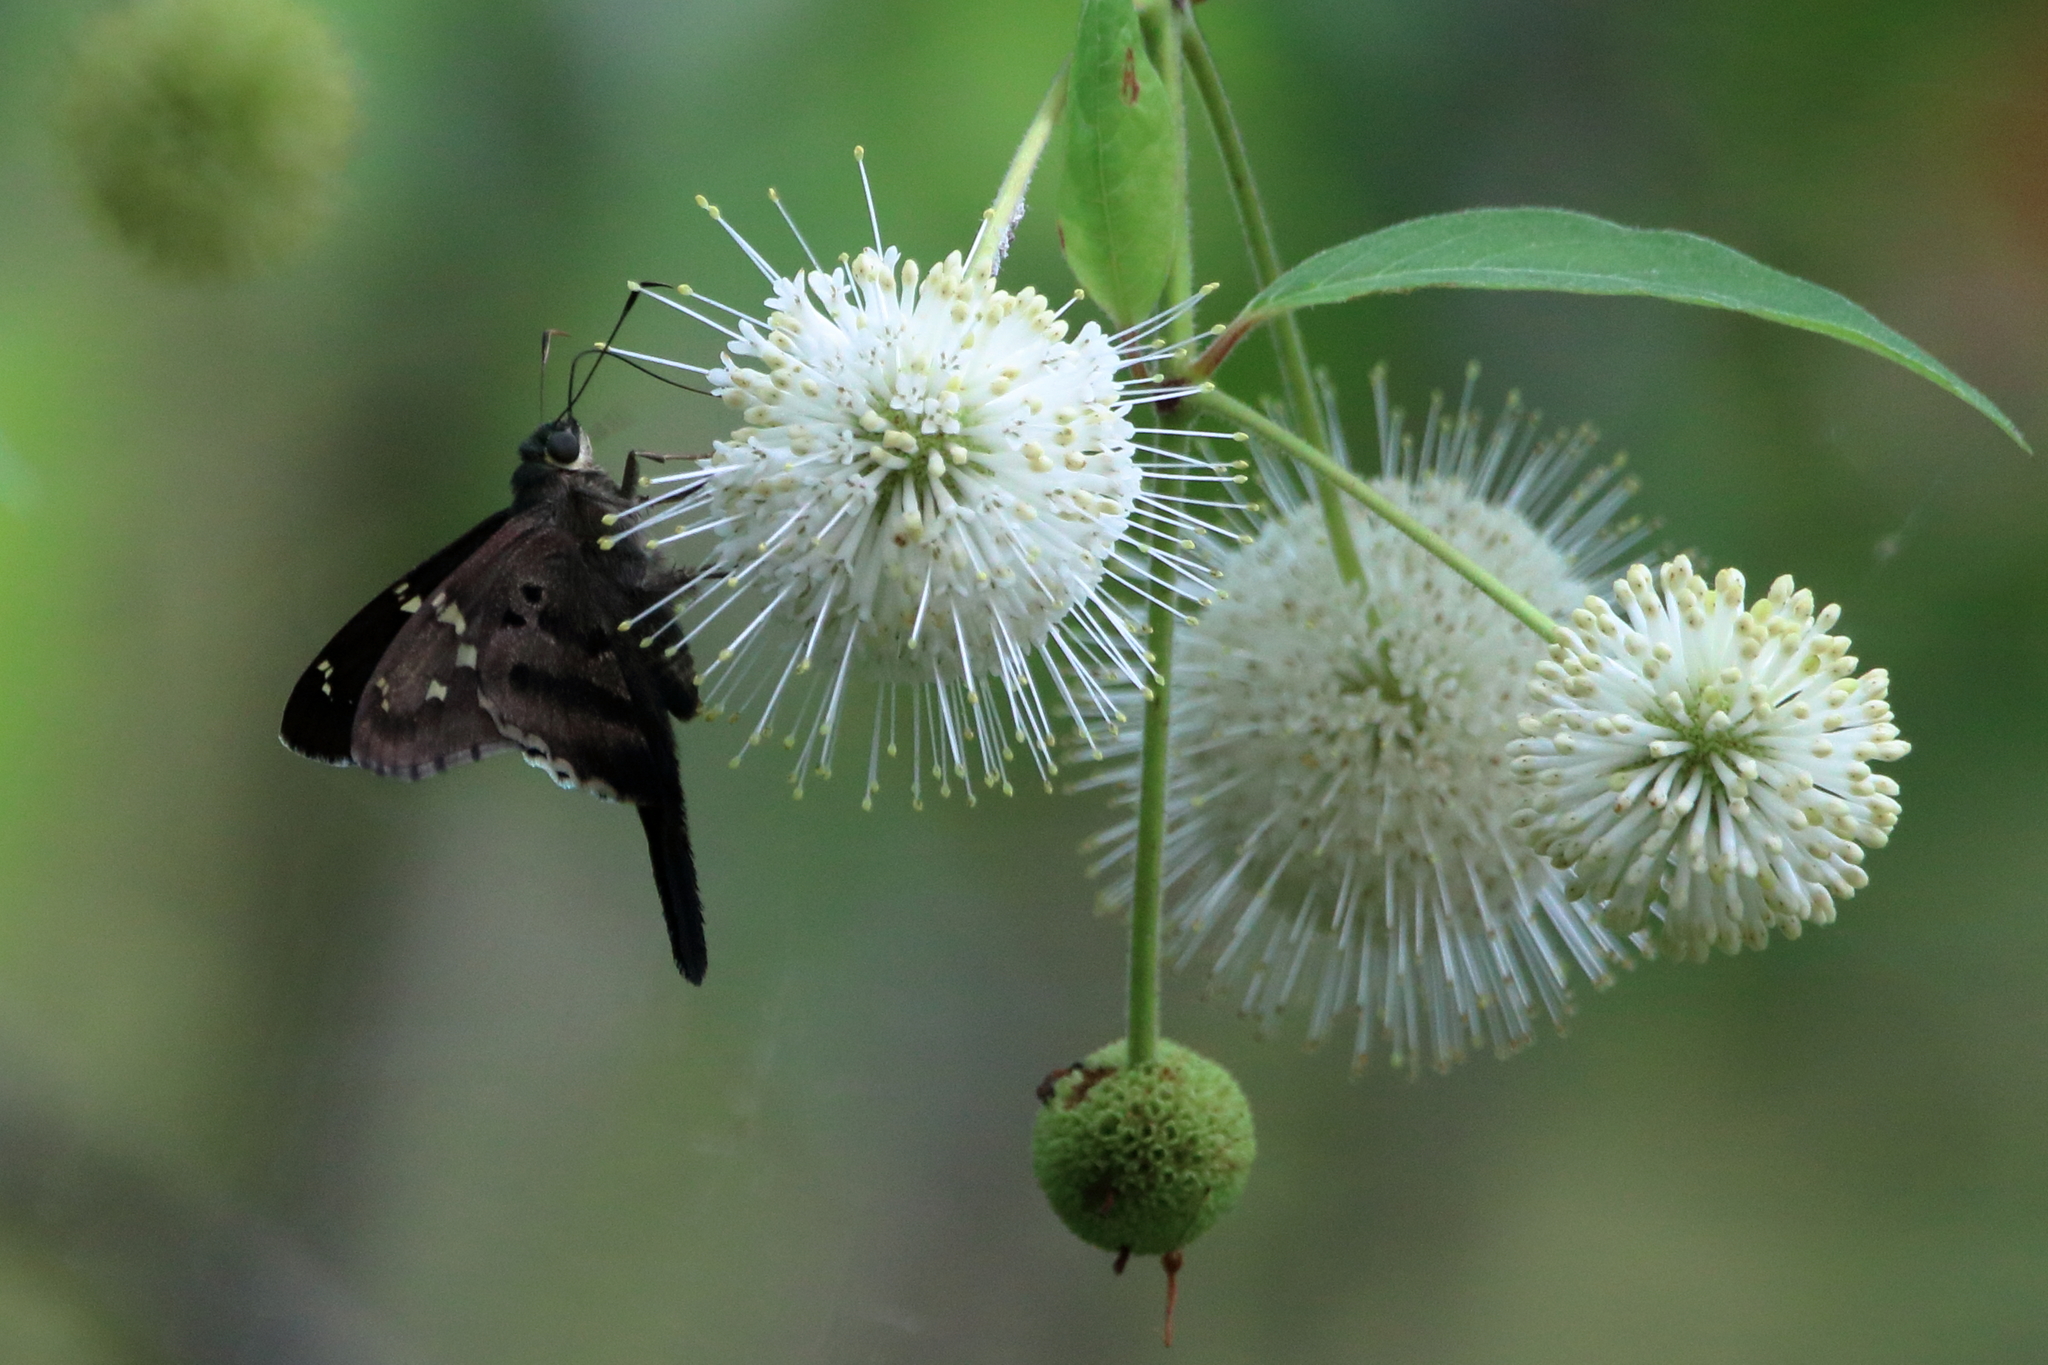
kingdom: Animalia
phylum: Arthropoda
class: Insecta
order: Lepidoptera
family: Hesperiidae
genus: Urbanus
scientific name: Urbanus proteus
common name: Long-tailed skipper
